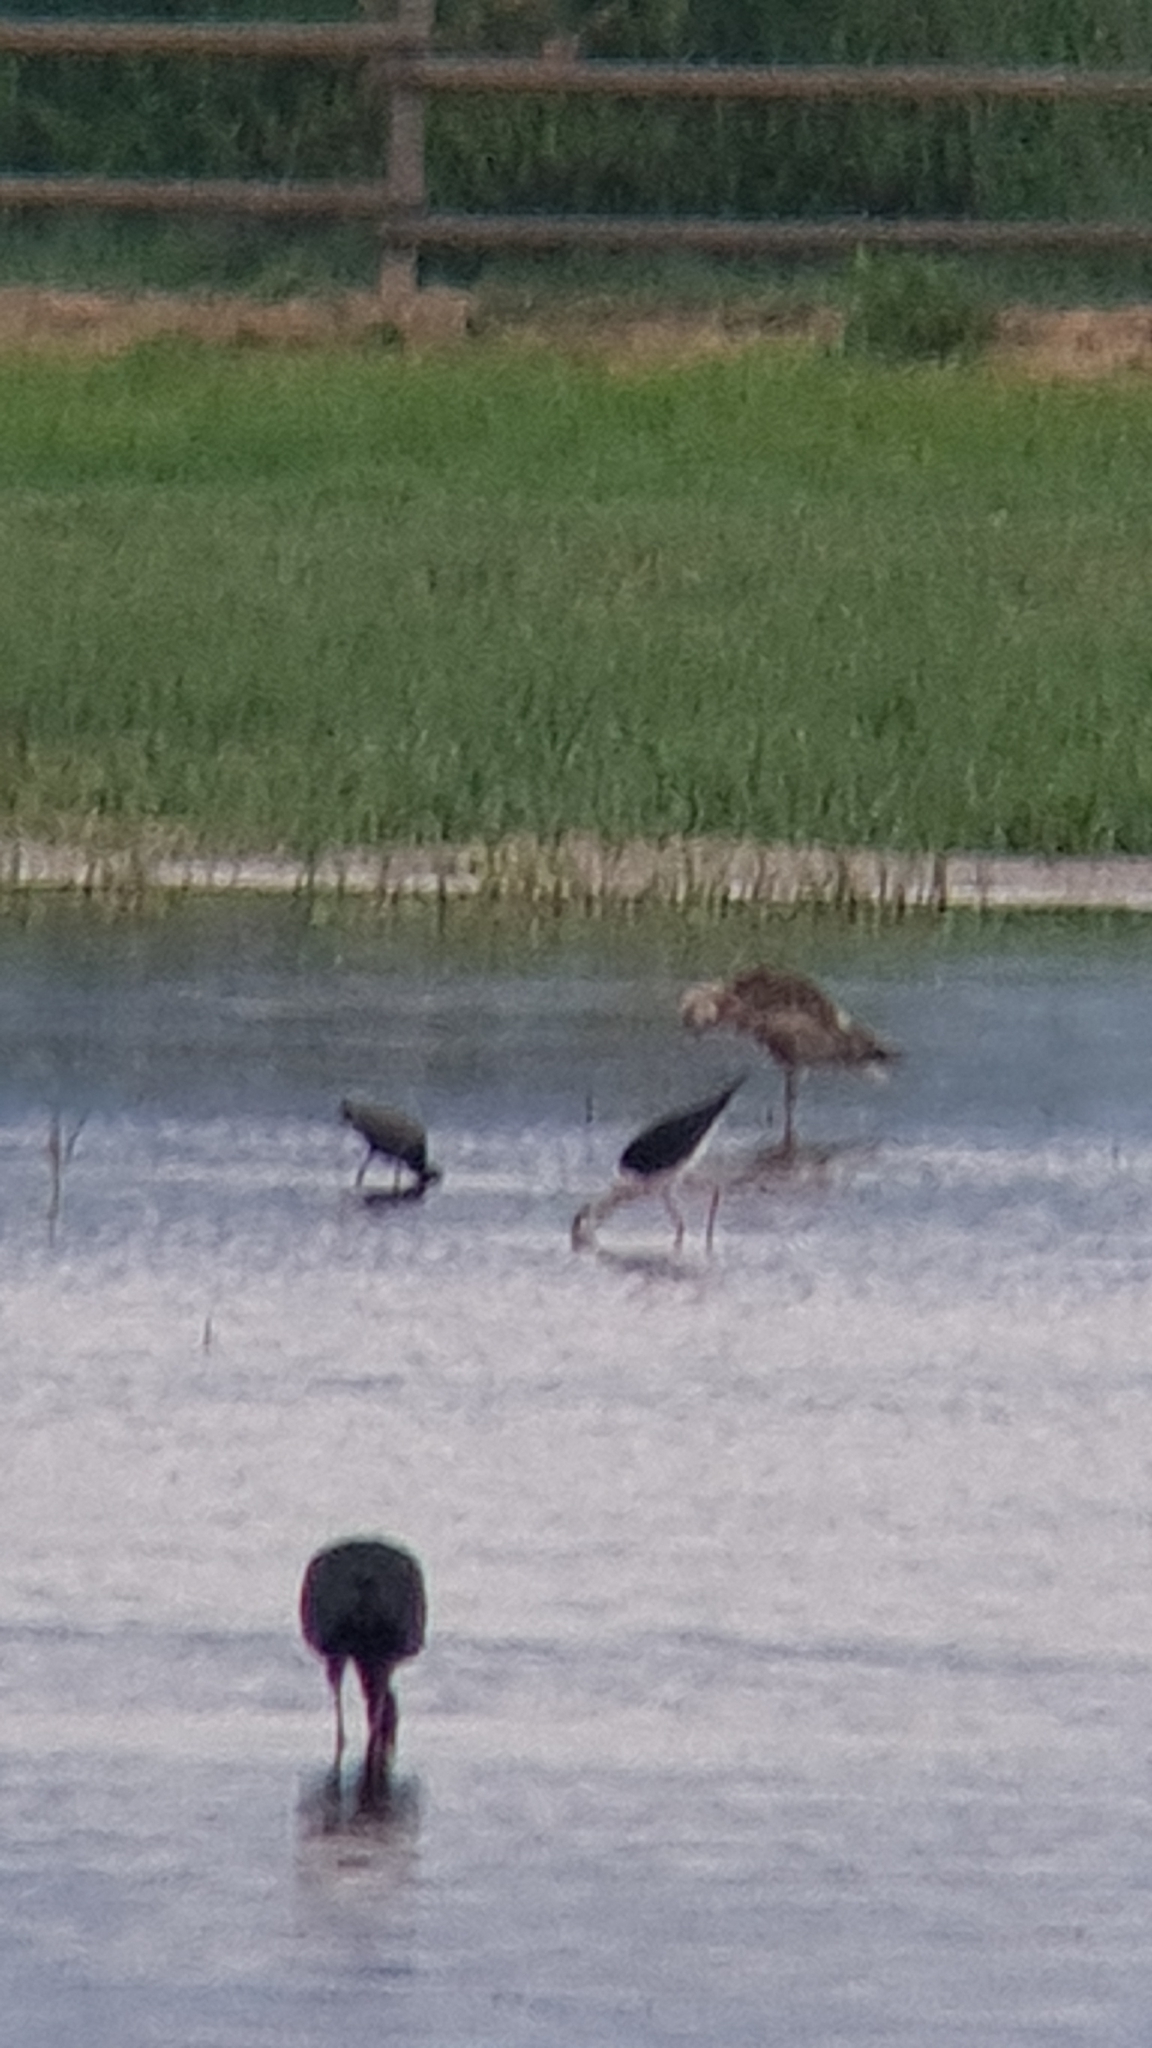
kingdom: Animalia
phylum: Chordata
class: Aves
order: Charadriiformes
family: Scolopacidae
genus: Numenius
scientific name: Numenius arquata
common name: Eurasian curlew
